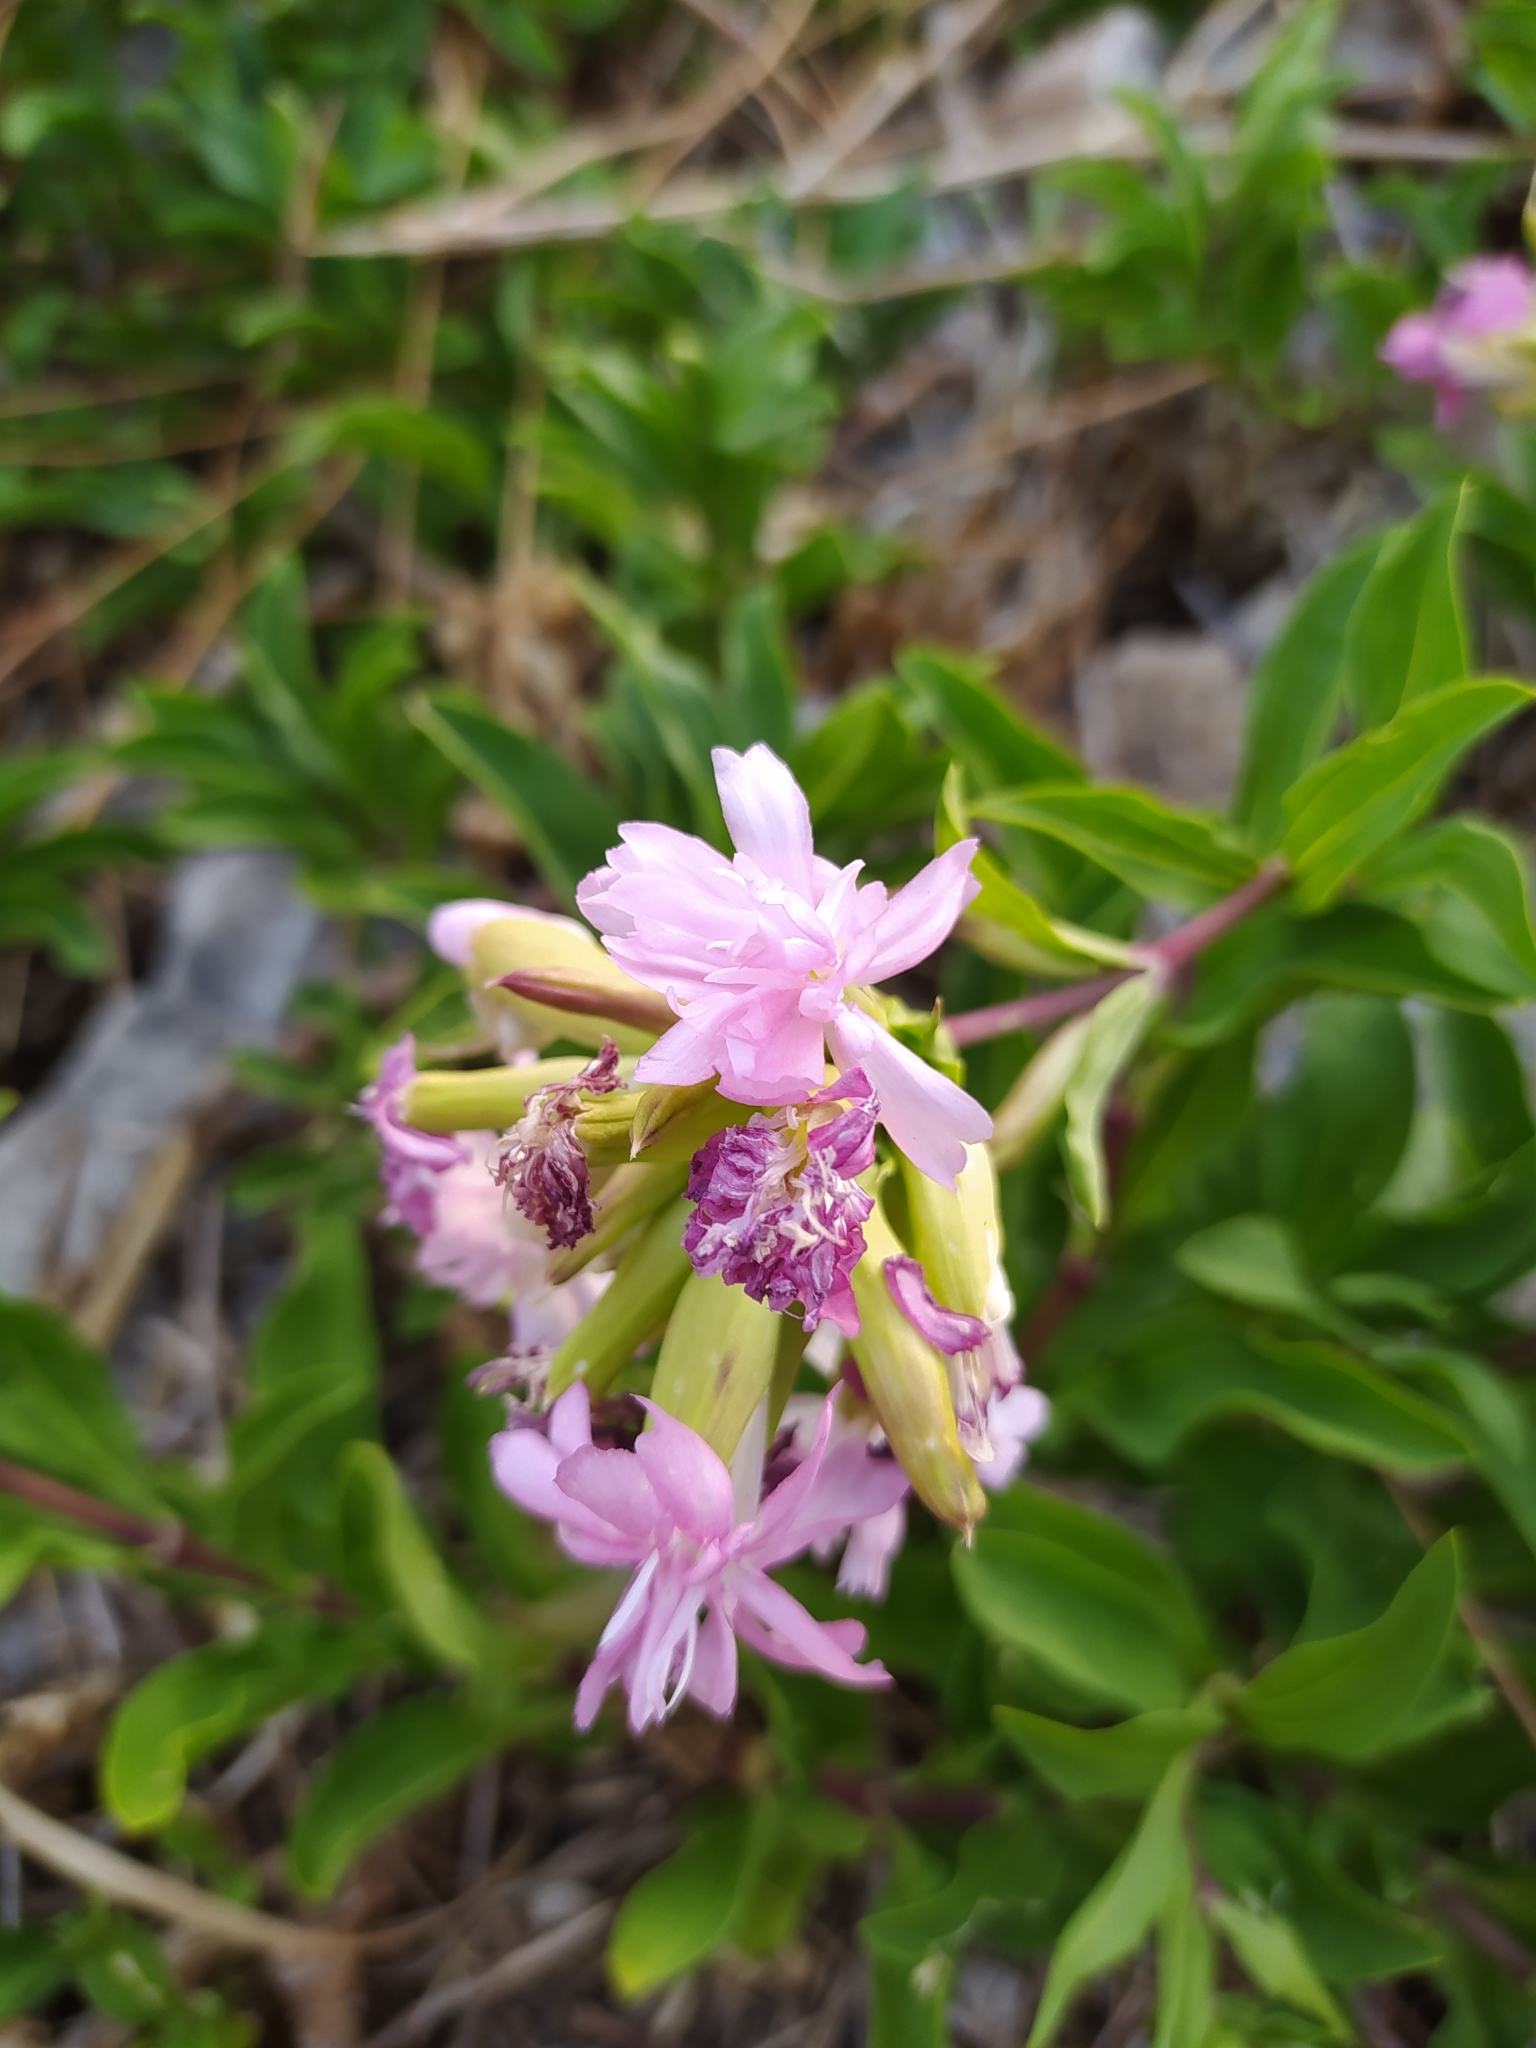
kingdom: Plantae
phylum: Tracheophyta
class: Magnoliopsida
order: Caryophyllales
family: Caryophyllaceae
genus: Saponaria
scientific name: Saponaria officinalis
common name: Soapwort
